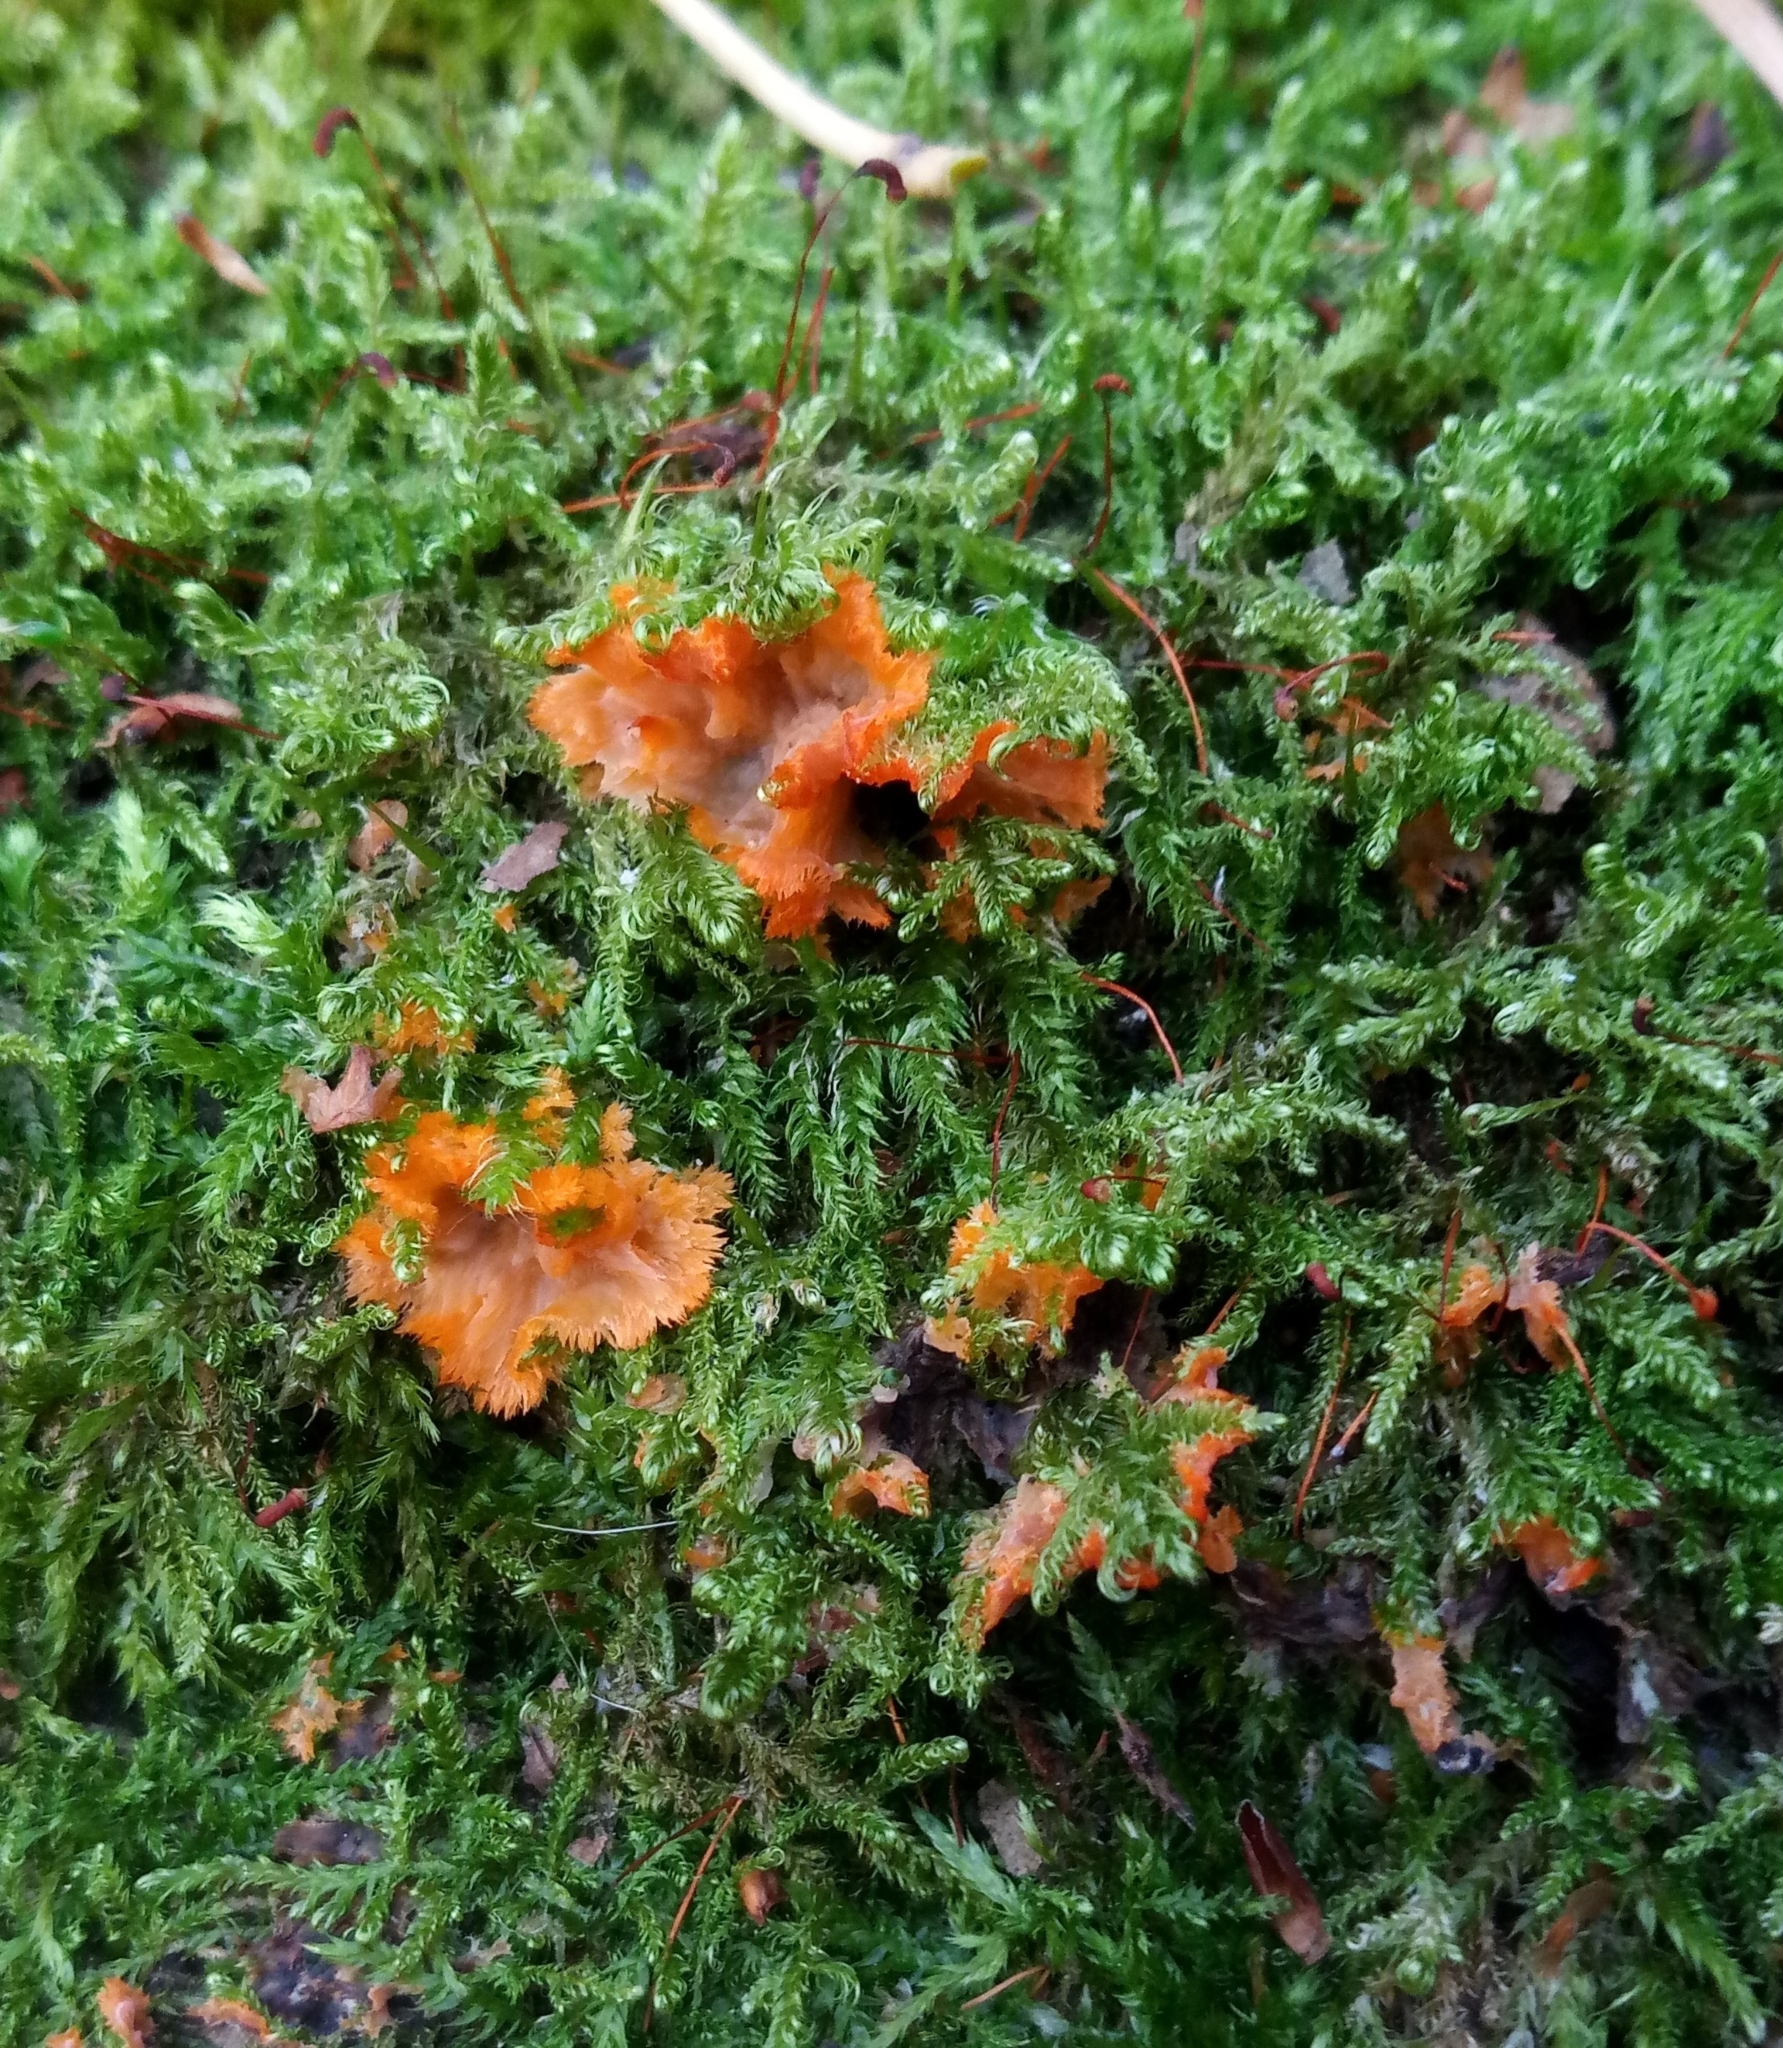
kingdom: Fungi
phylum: Basidiomycota
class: Agaricomycetes
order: Polyporales
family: Meruliaceae
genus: Phlebia
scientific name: Phlebia radiata
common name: Wrinkled crust
